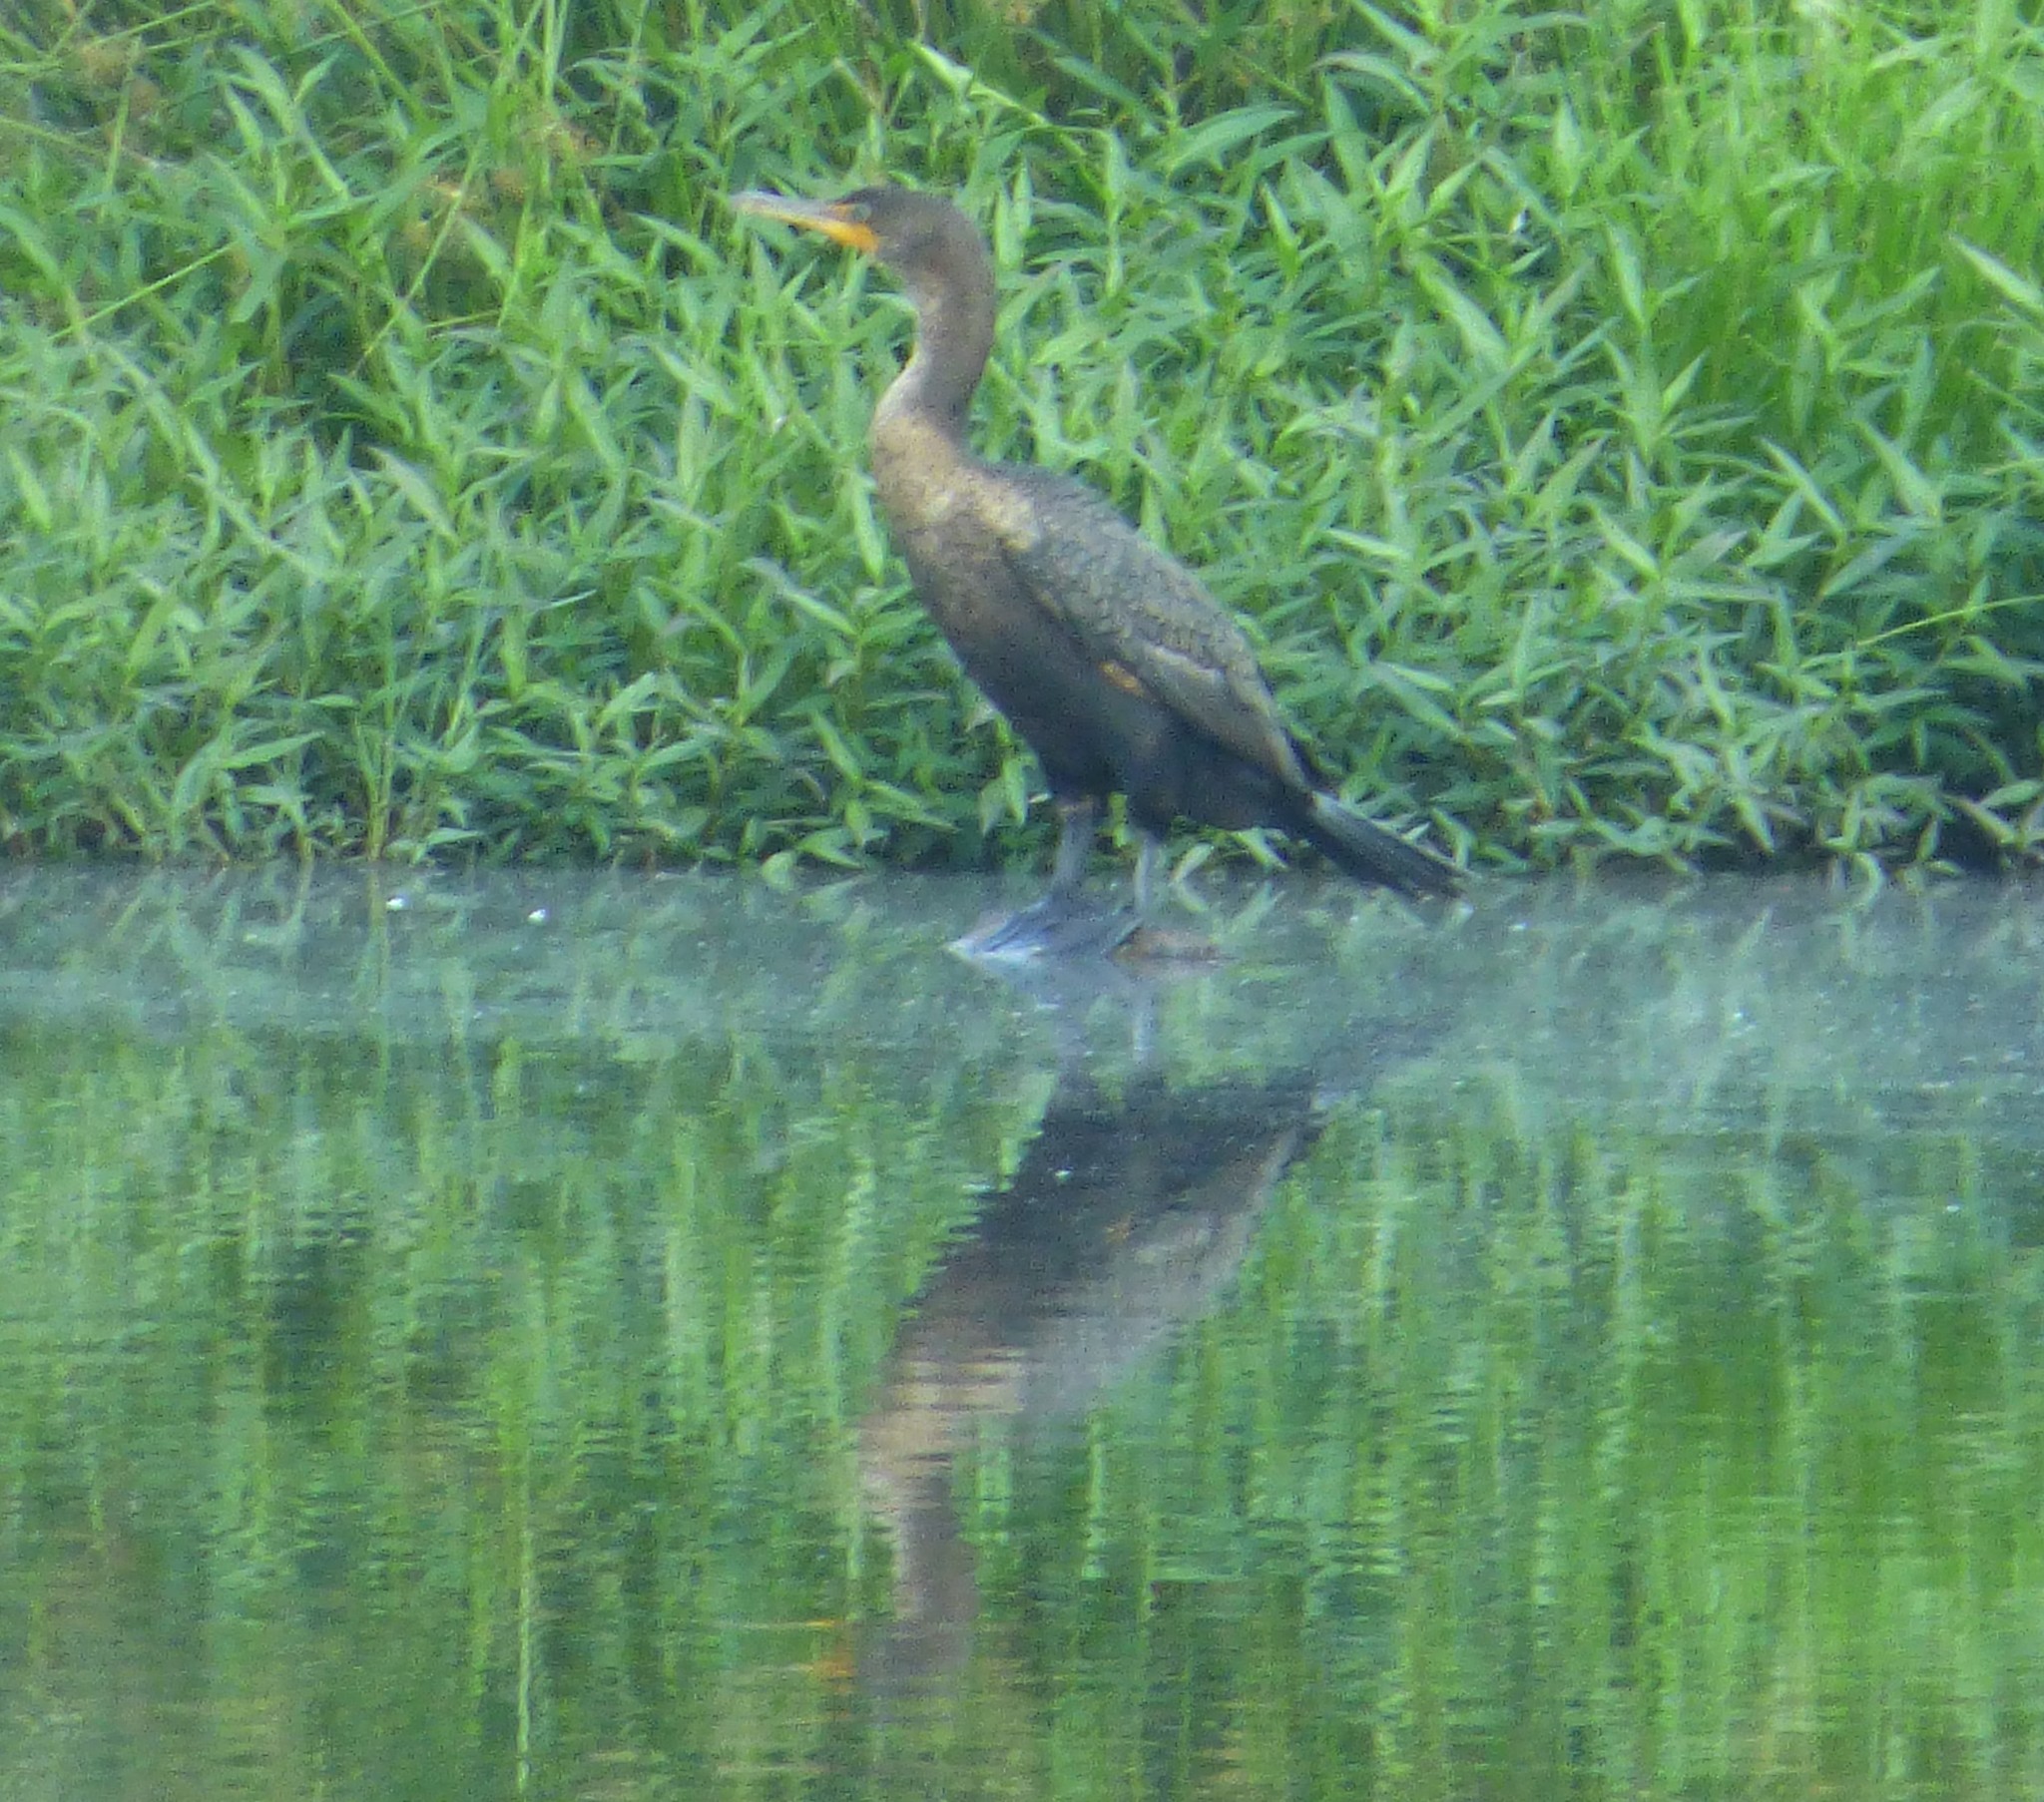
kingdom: Animalia
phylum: Chordata
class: Aves
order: Suliformes
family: Phalacrocoracidae
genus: Phalacrocorax
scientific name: Phalacrocorax auritus
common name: Double-crested cormorant
